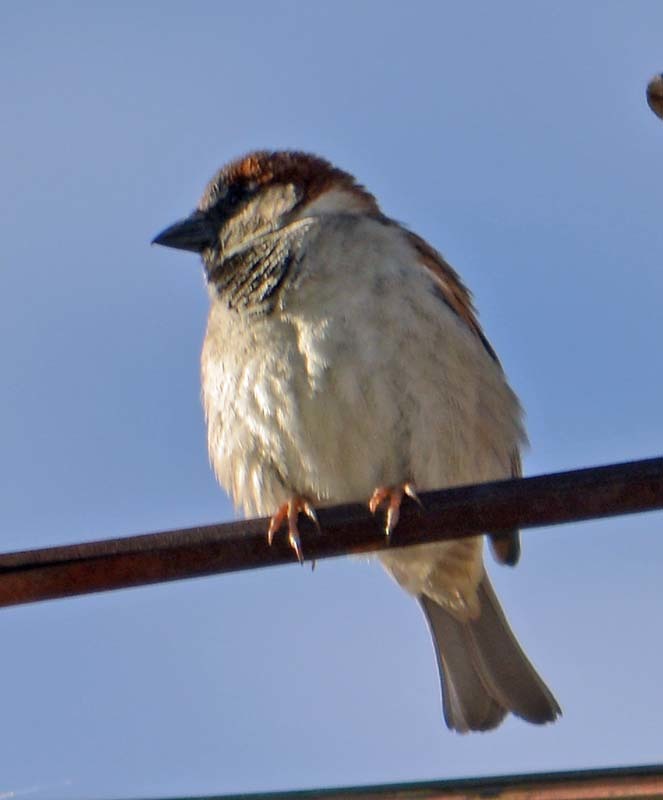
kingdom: Animalia
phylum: Chordata
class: Aves
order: Passeriformes
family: Passeridae
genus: Passer
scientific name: Passer domesticus
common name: House sparrow
